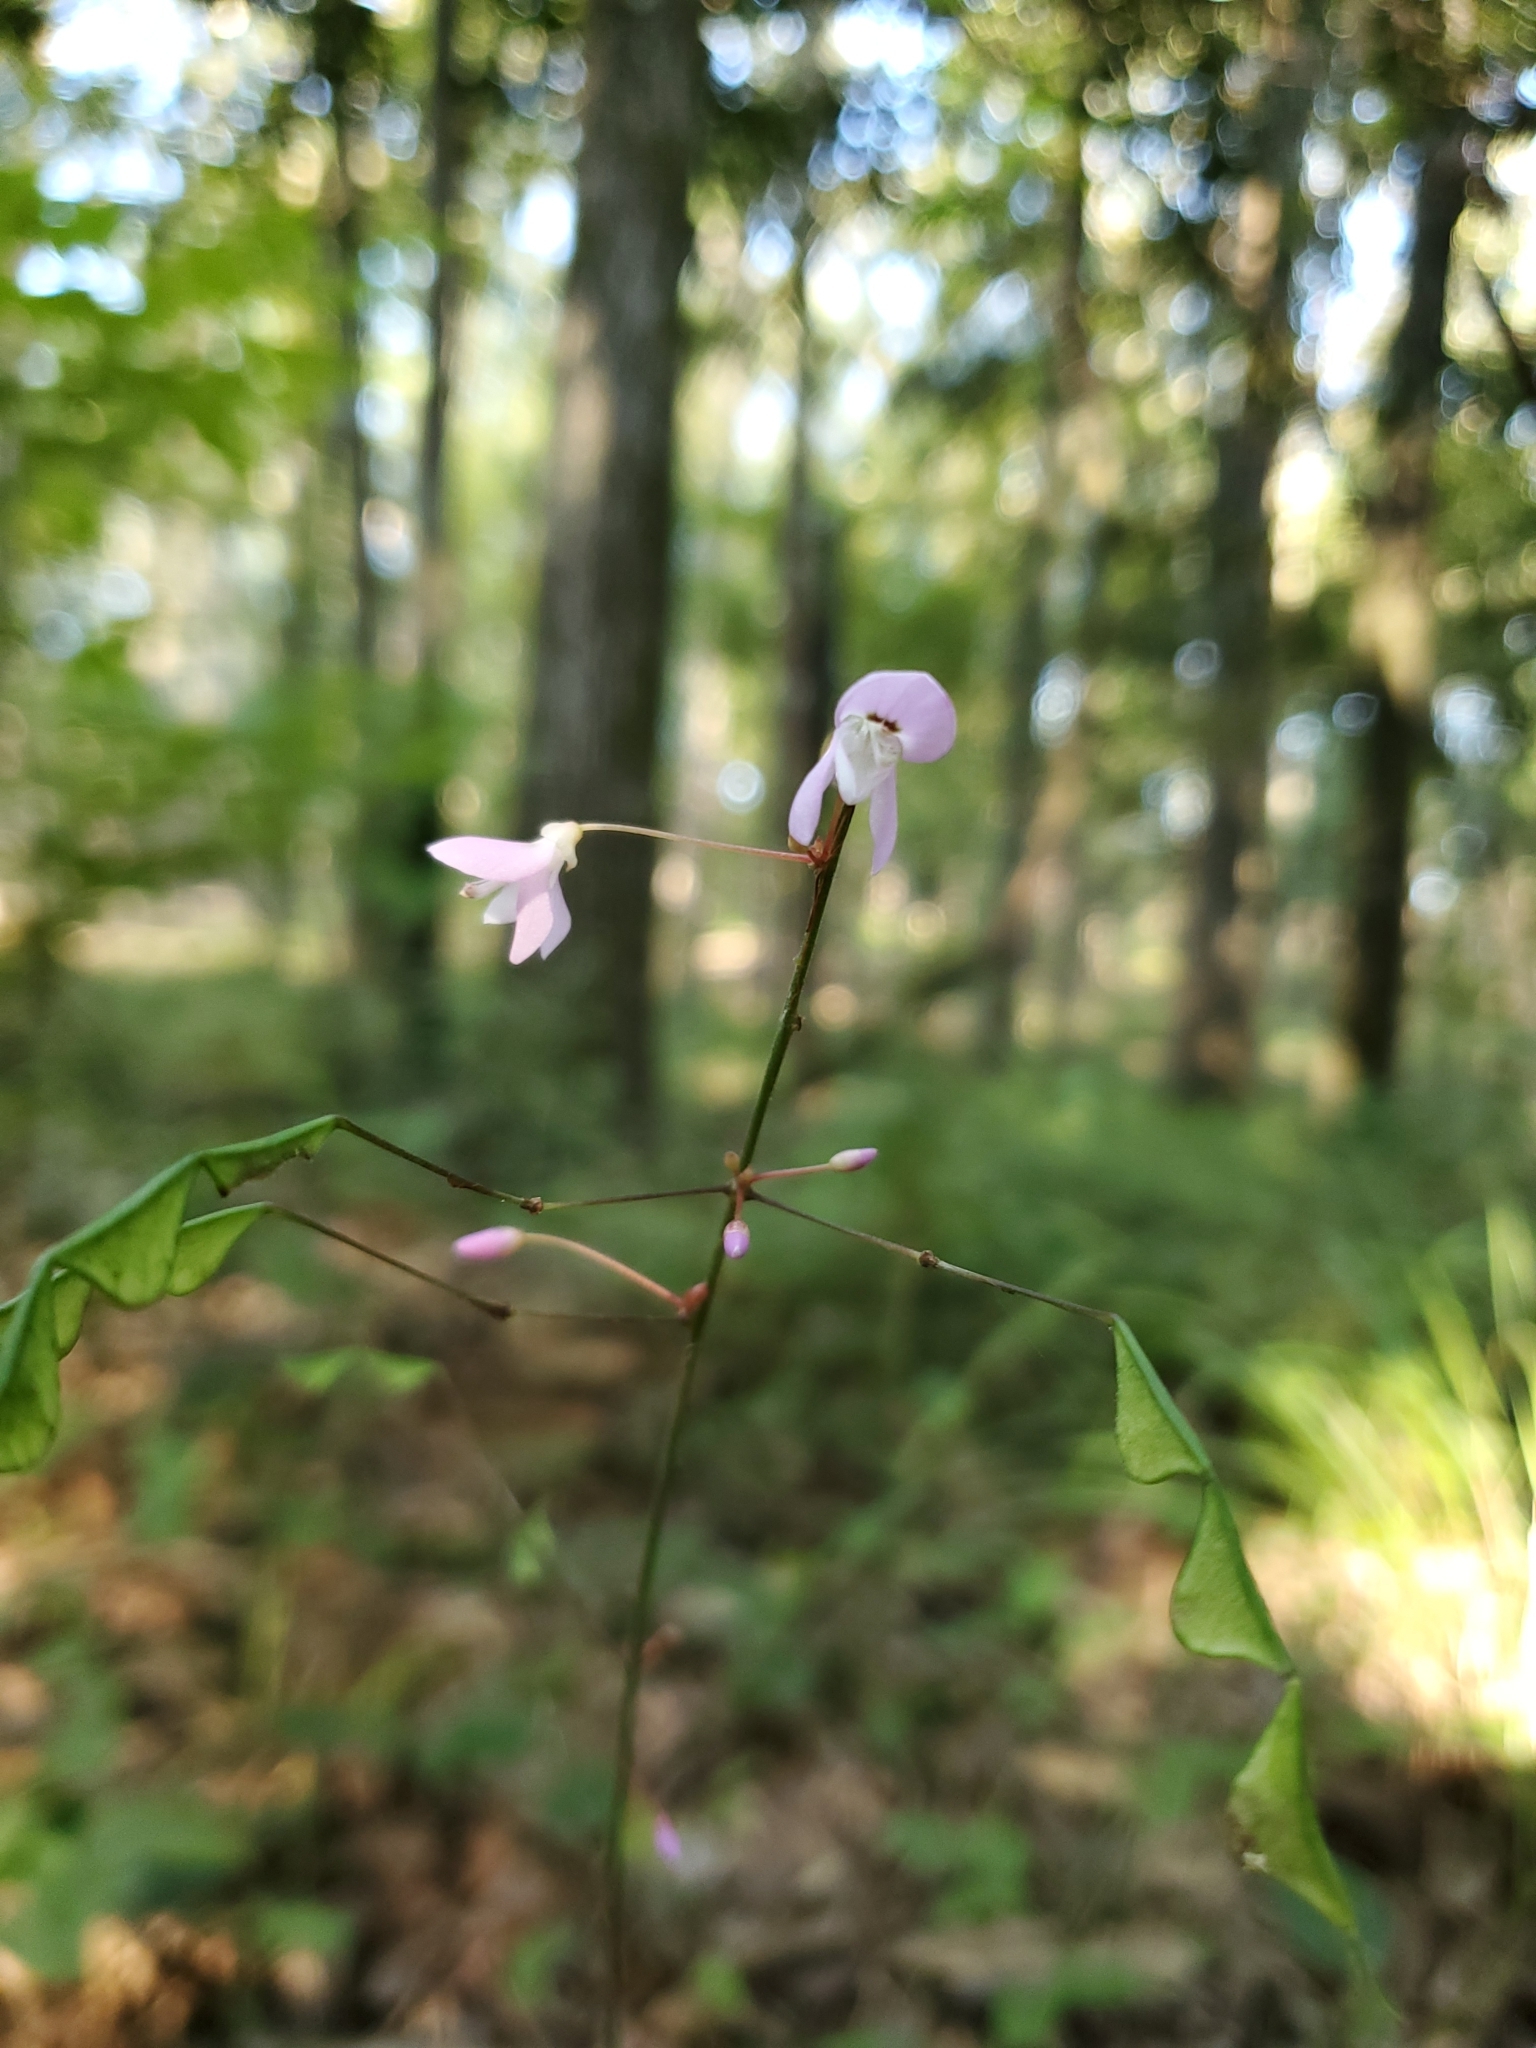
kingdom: Plantae
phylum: Tracheophyta
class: Magnoliopsida
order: Fabales
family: Fabaceae
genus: Hylodesmum
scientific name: Hylodesmum nudiflorum
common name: Bare-stemmed tick-trefoil
